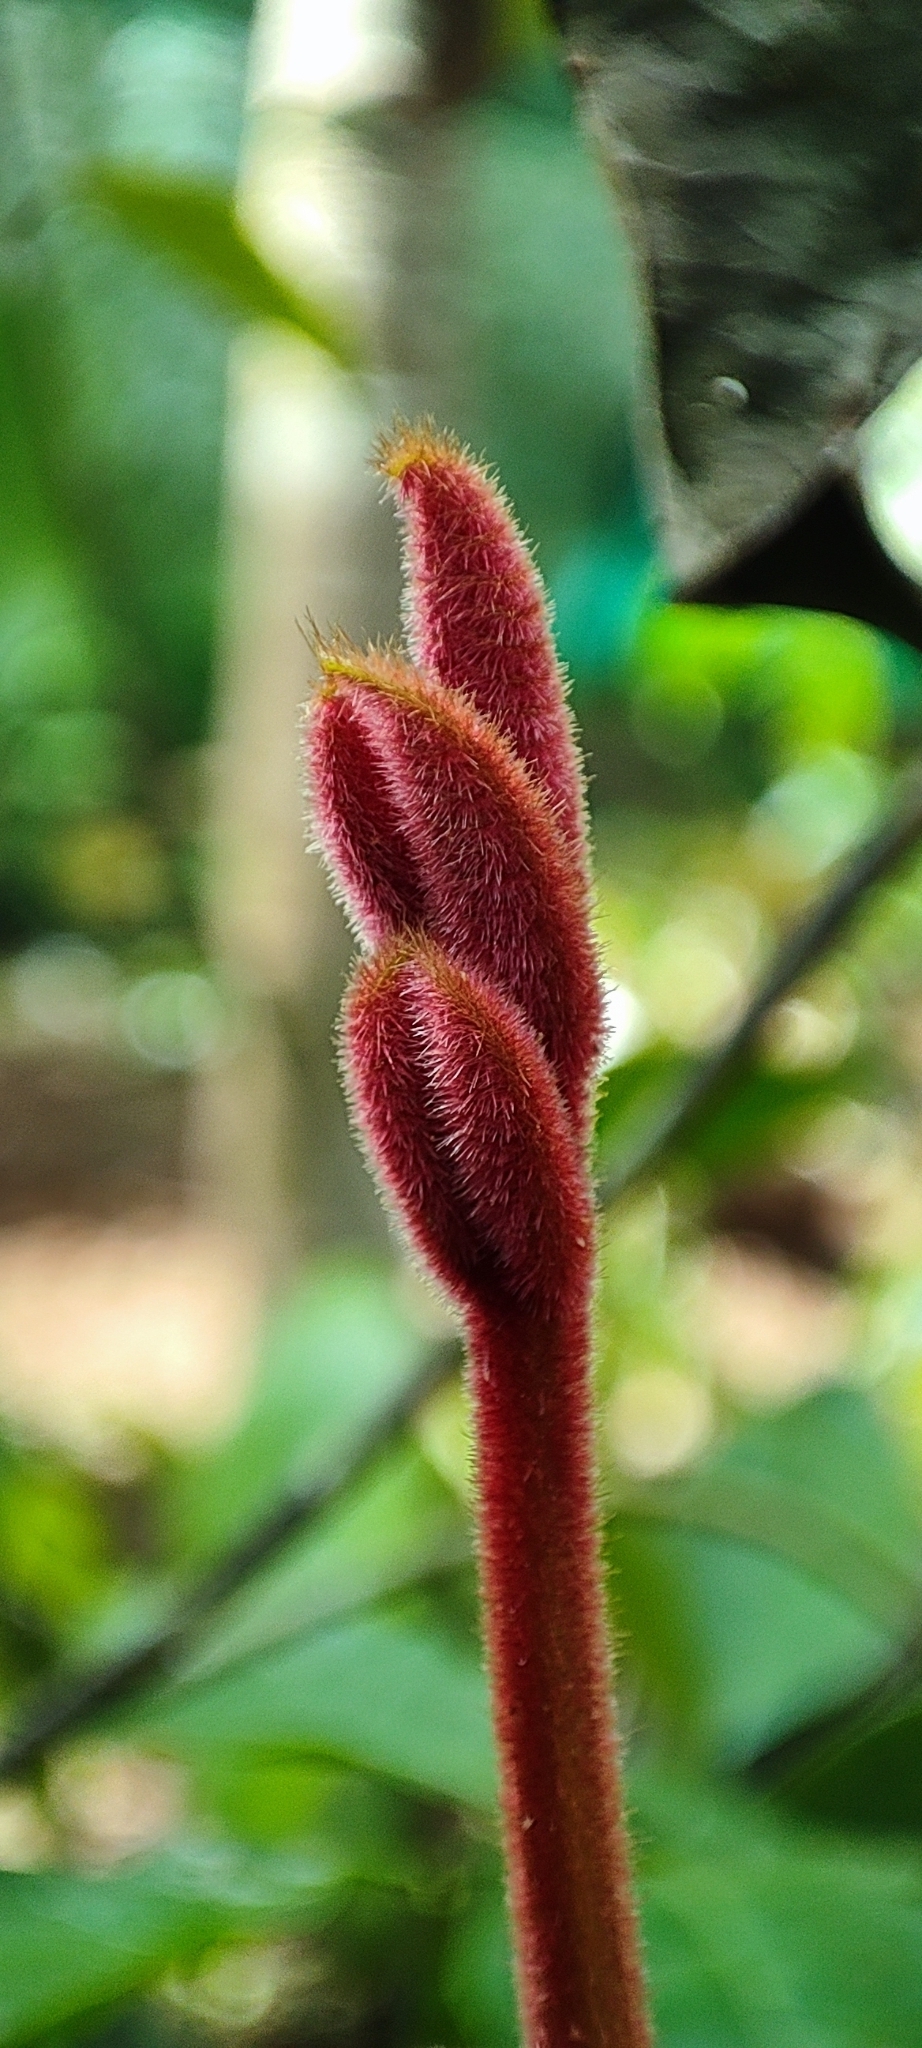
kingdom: Plantae
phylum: Tracheophyta
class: Magnoliopsida
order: Sapindales
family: Burseraceae
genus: Canarium
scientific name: Canarium strictum
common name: Indian white-mahogany
